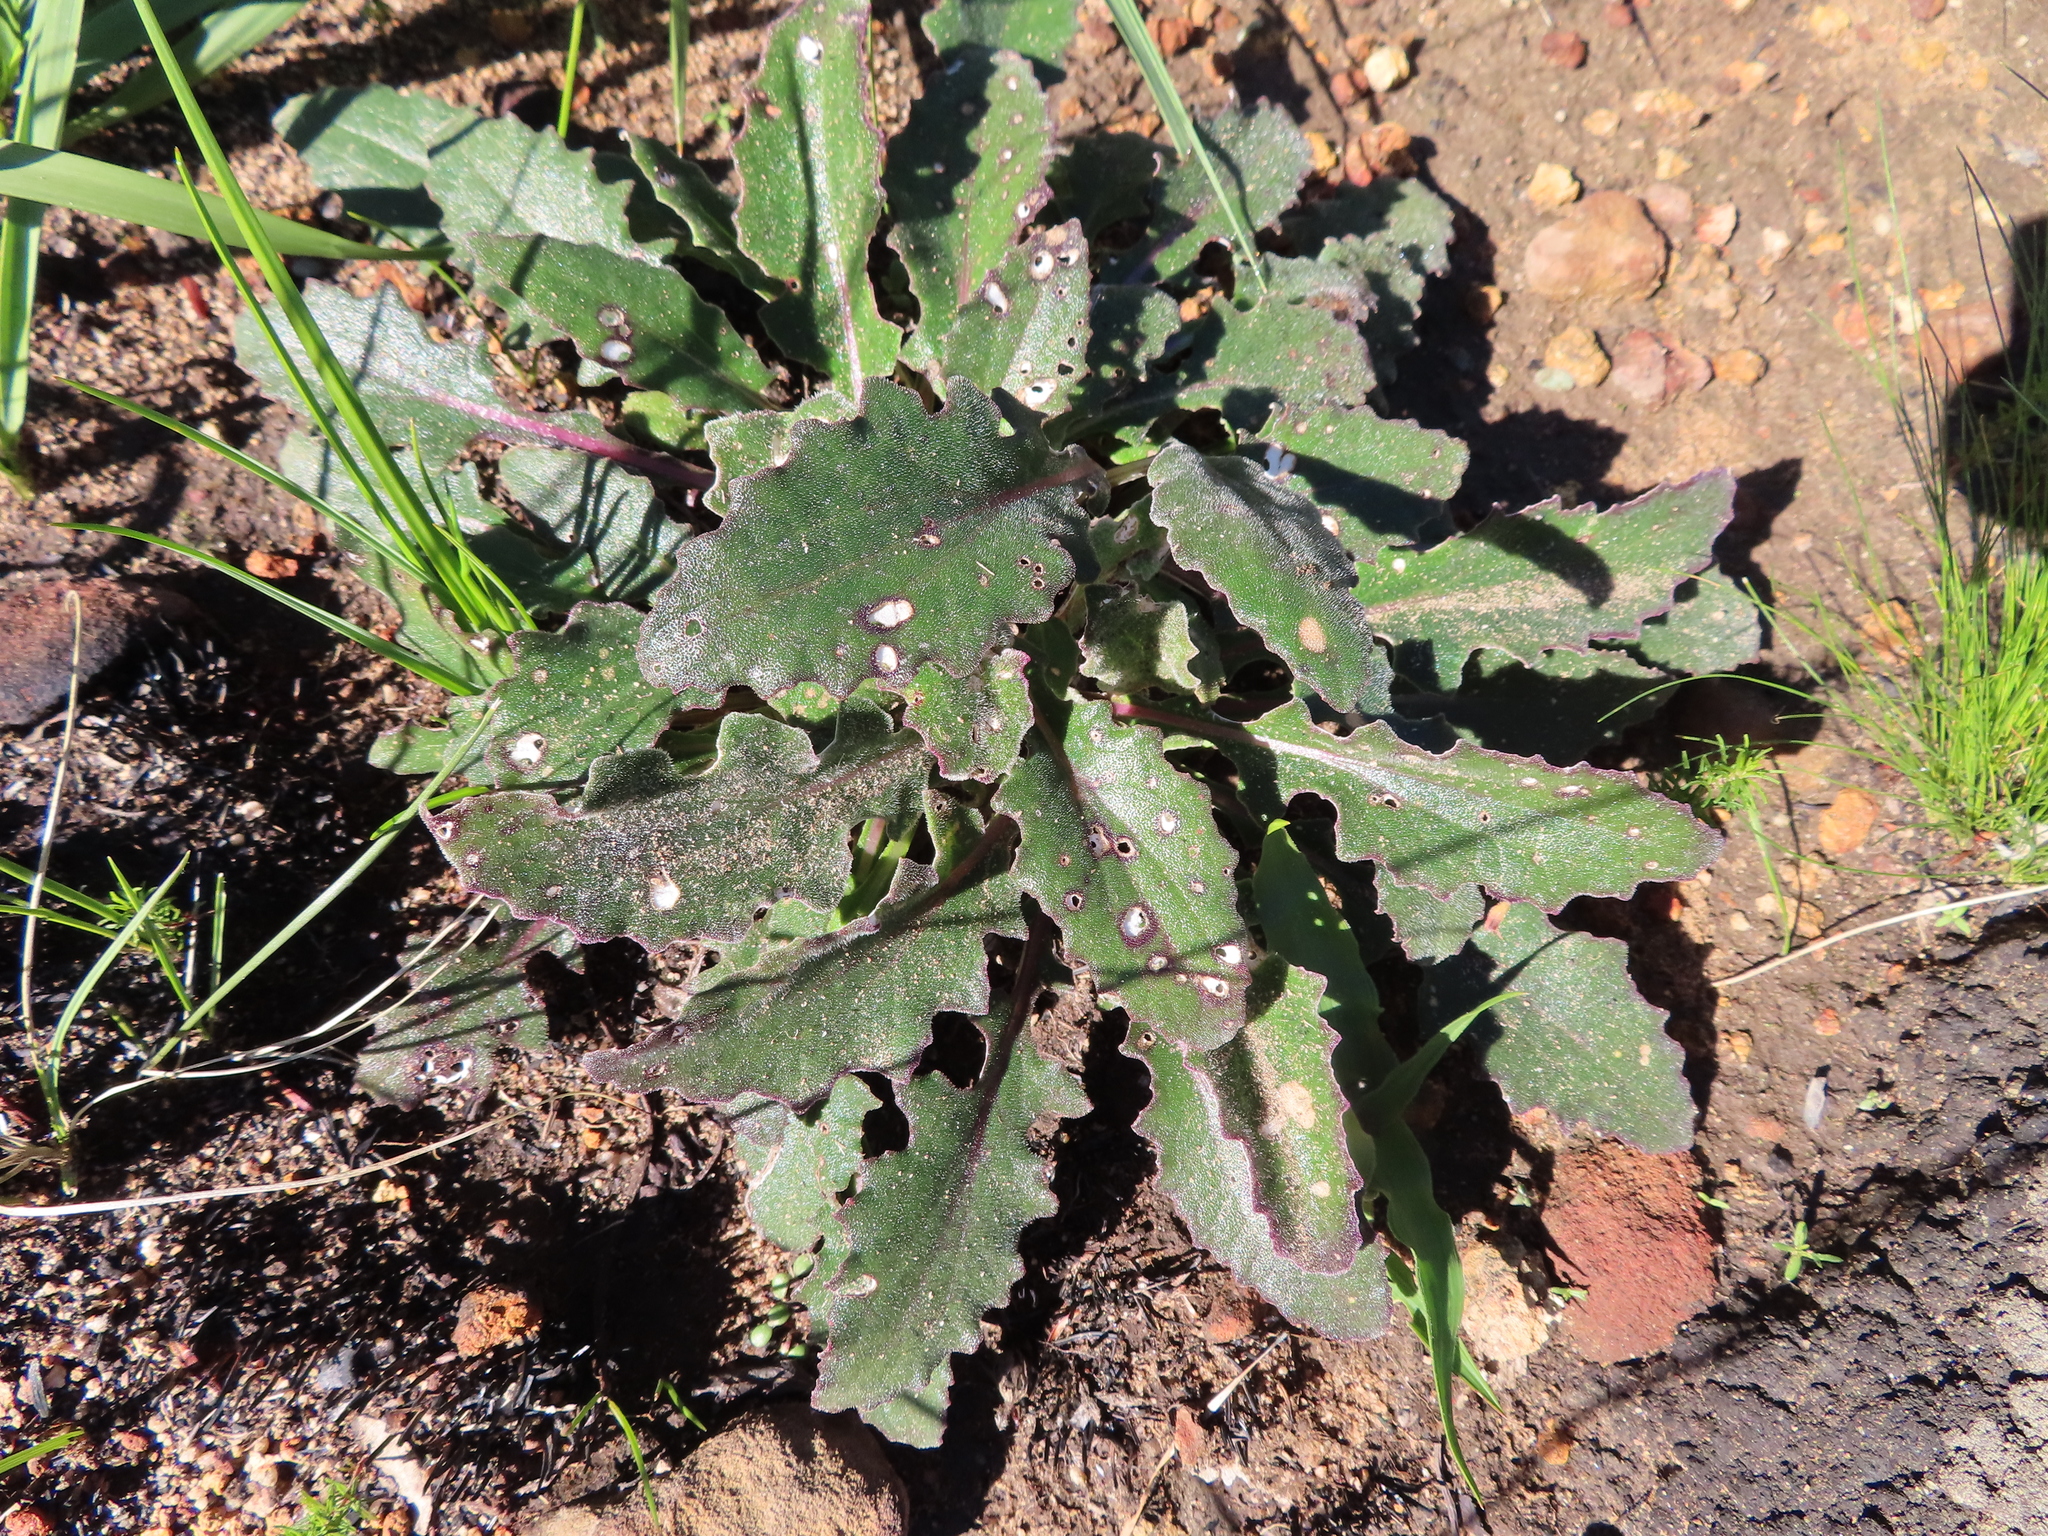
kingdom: Plantae
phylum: Tracheophyta
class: Magnoliopsida
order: Asterales
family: Asteraceae
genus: Haplocarpha
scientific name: Haplocarpha lanata
